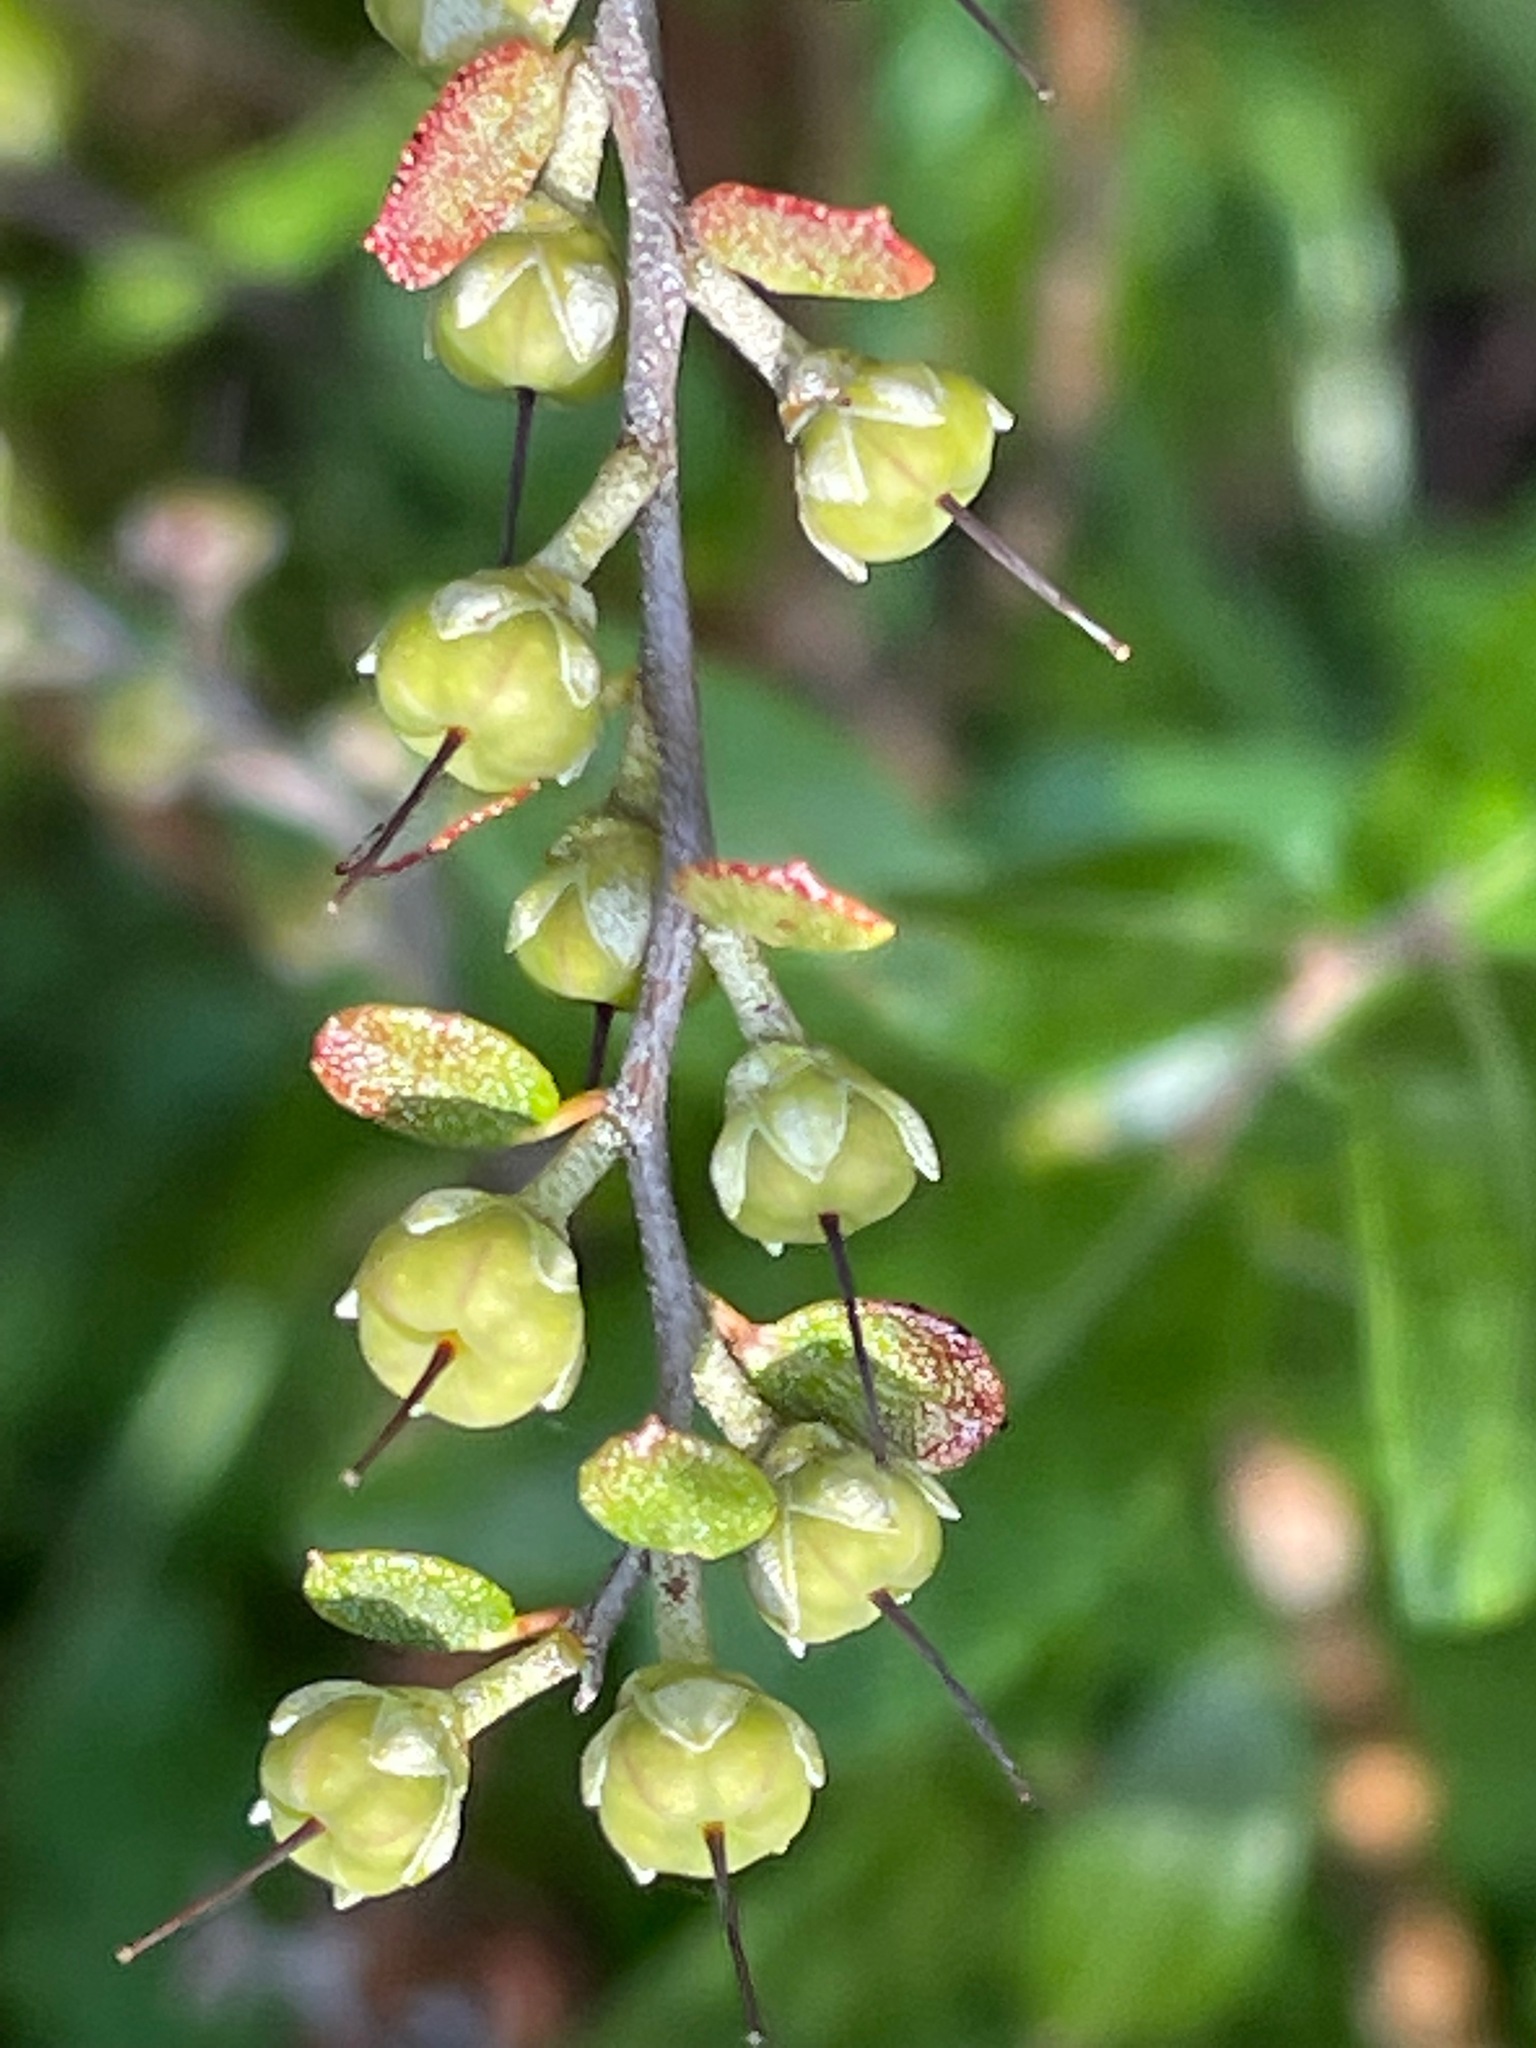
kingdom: Plantae
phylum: Tracheophyta
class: Magnoliopsida
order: Ericales
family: Ericaceae
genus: Chamaedaphne
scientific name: Chamaedaphne calyculata
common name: Leatherleaf
